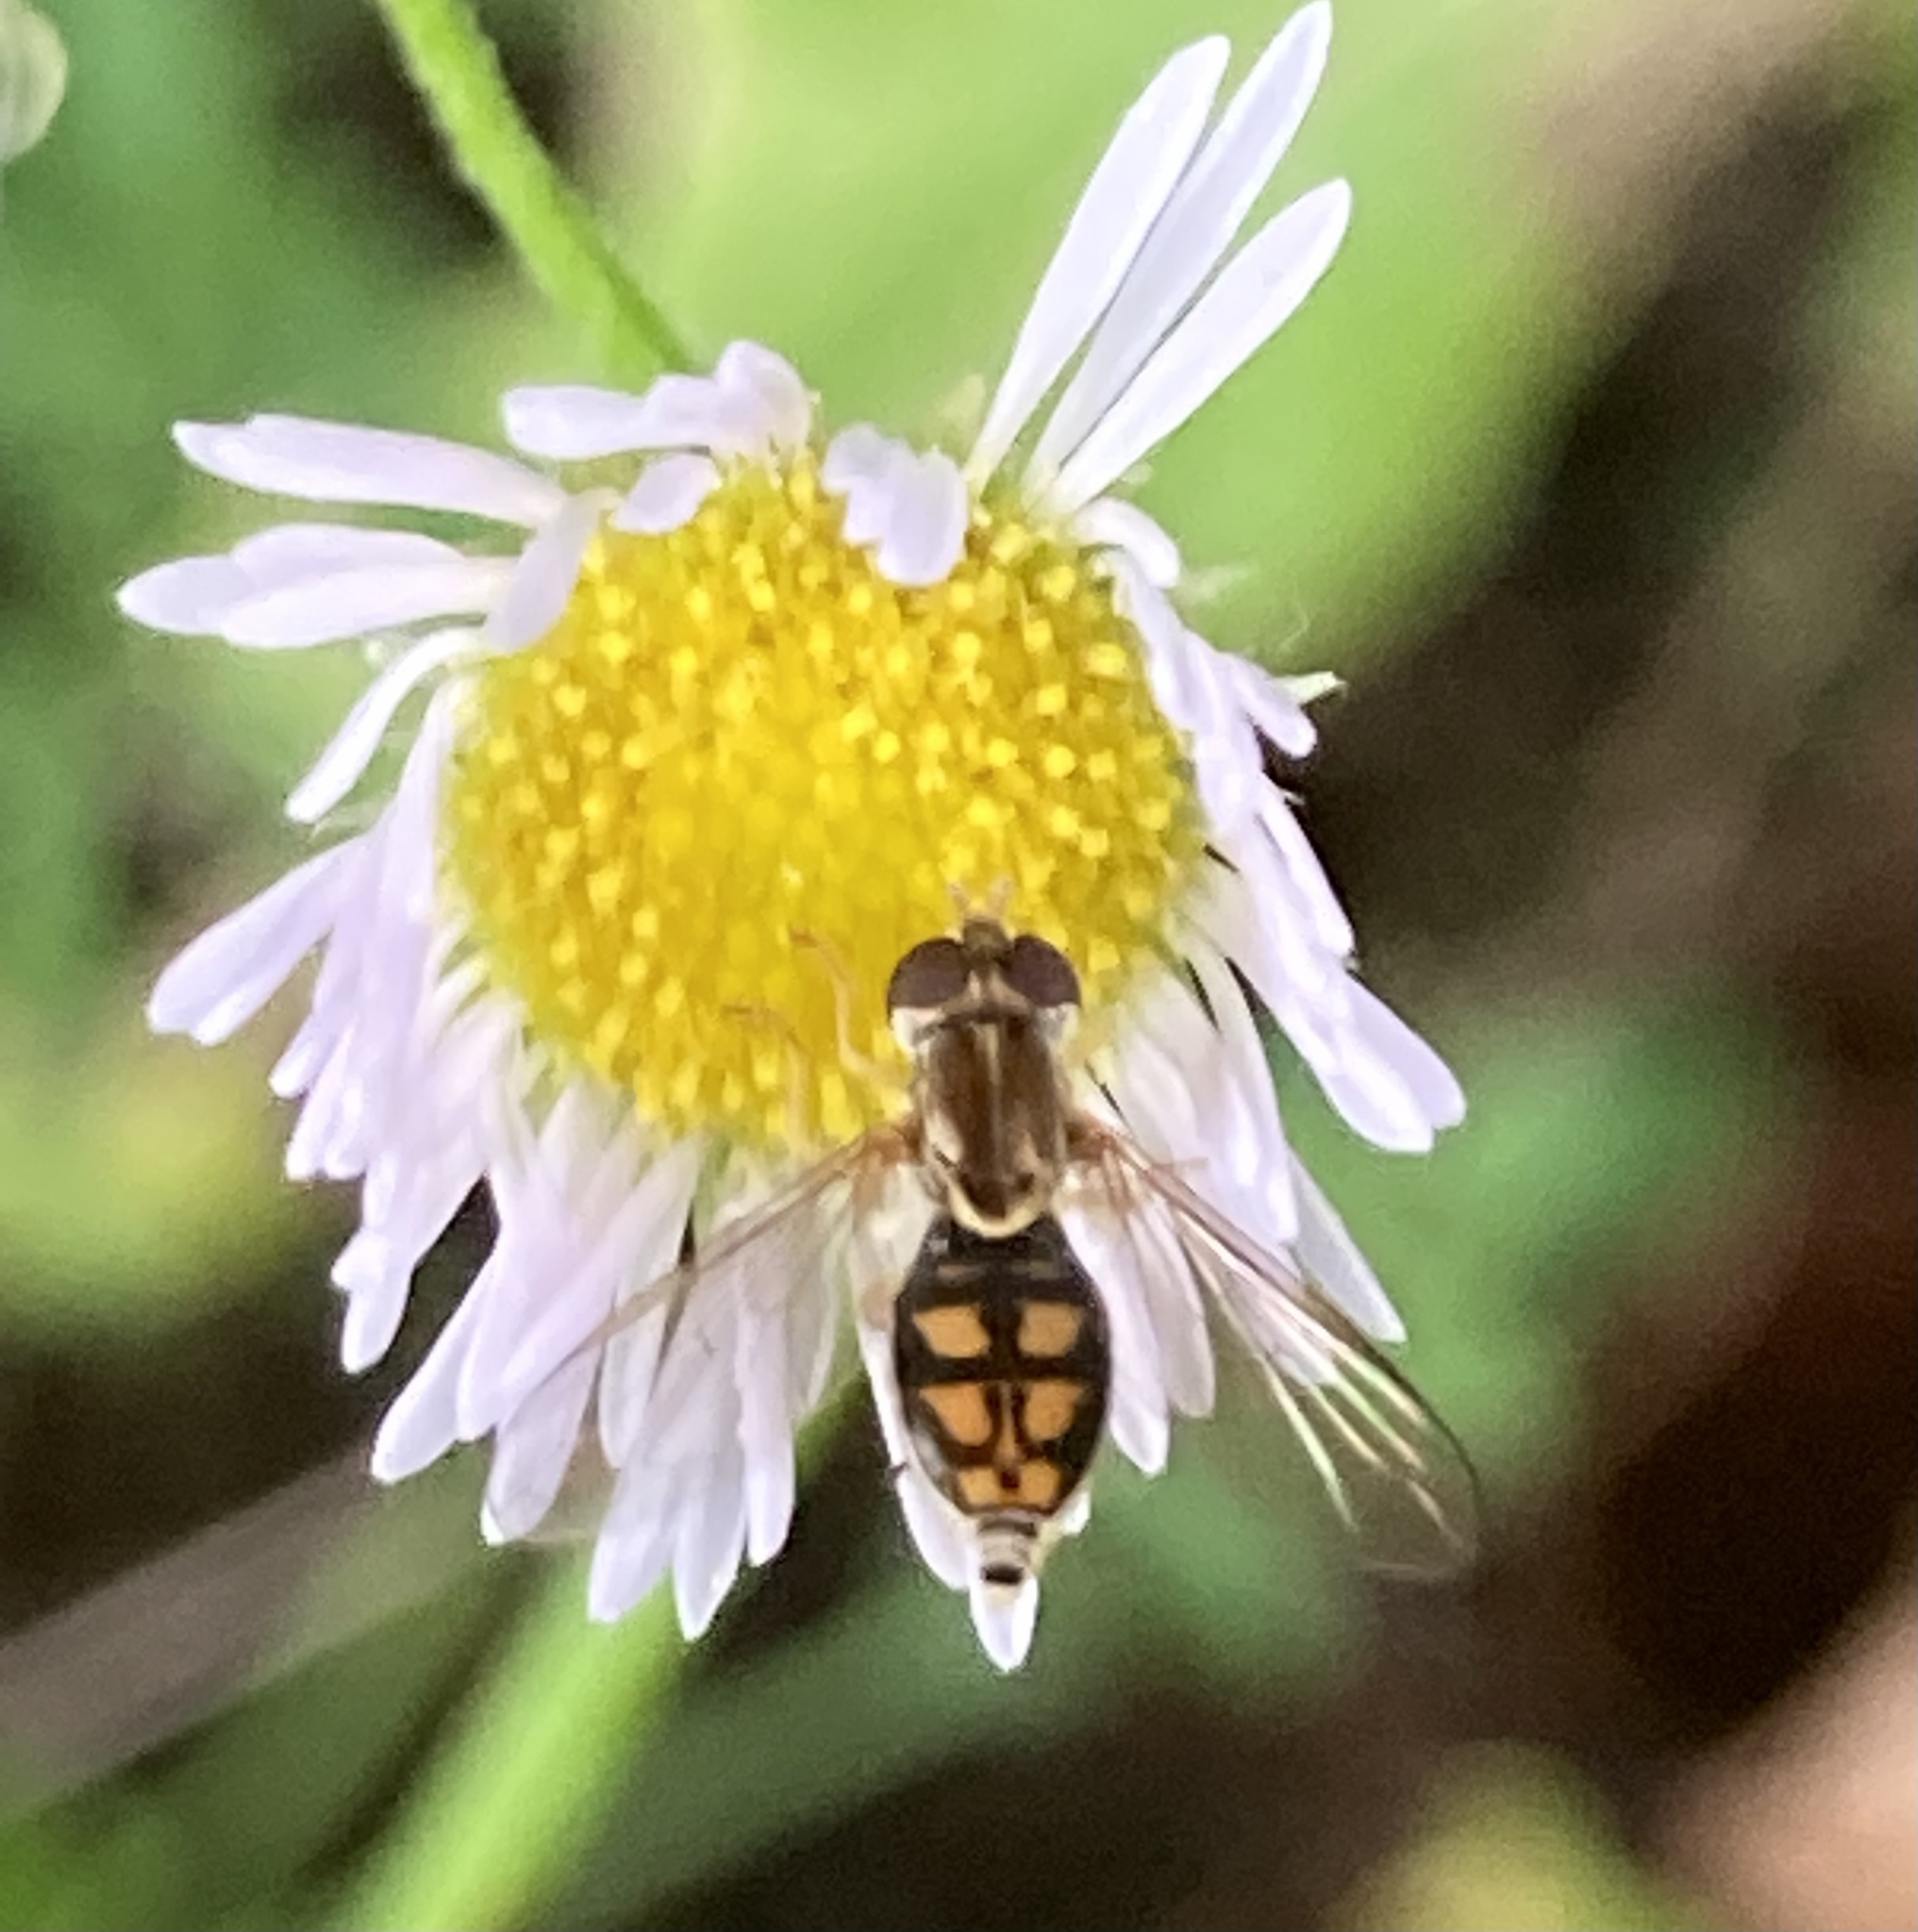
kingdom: Animalia
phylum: Arthropoda
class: Insecta
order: Diptera
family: Syrphidae
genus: Toxomerus
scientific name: Toxomerus marginatus
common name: Syrphid fly
